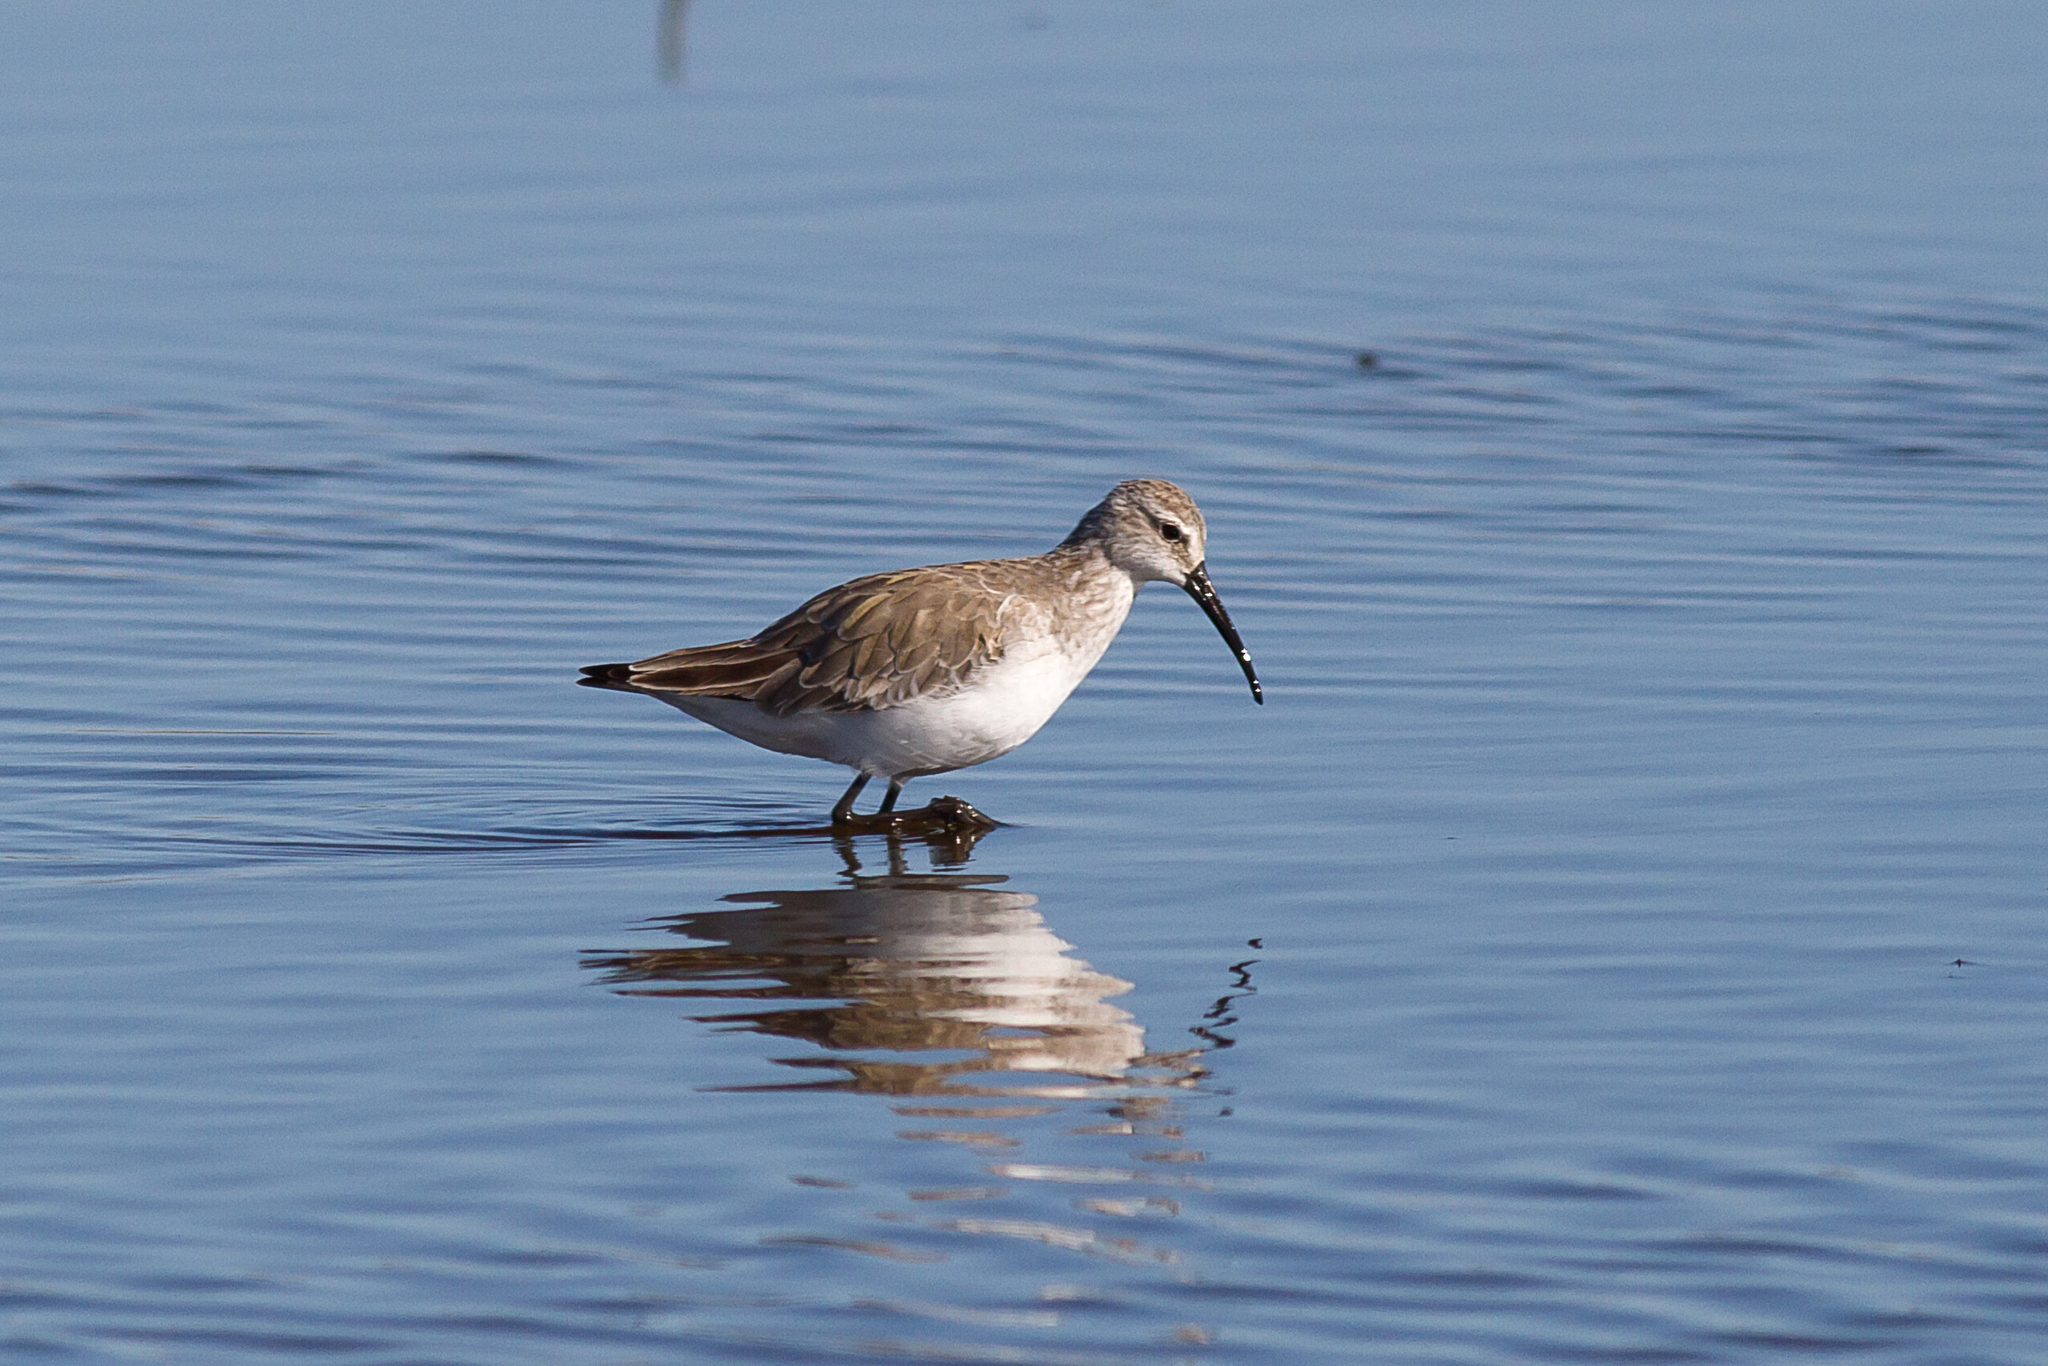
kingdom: Animalia
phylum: Chordata
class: Aves
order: Charadriiformes
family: Scolopacidae
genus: Calidris
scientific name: Calidris ferruginea
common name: Curlew sandpiper
